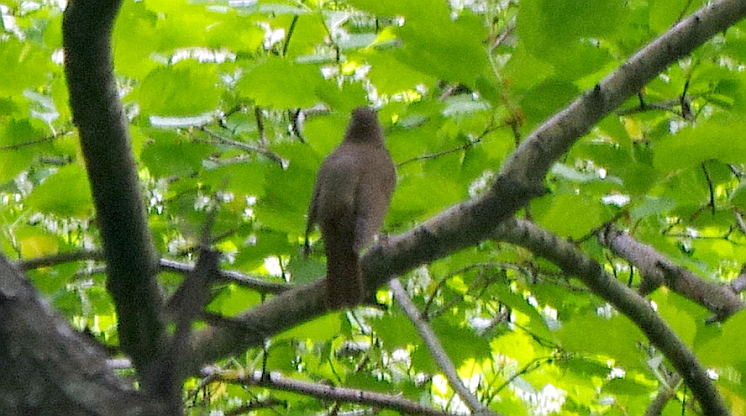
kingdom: Animalia
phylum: Chordata
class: Aves
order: Passeriformes
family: Muscicapidae
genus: Luscinia
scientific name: Luscinia luscinia
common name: Thrush nightingale
